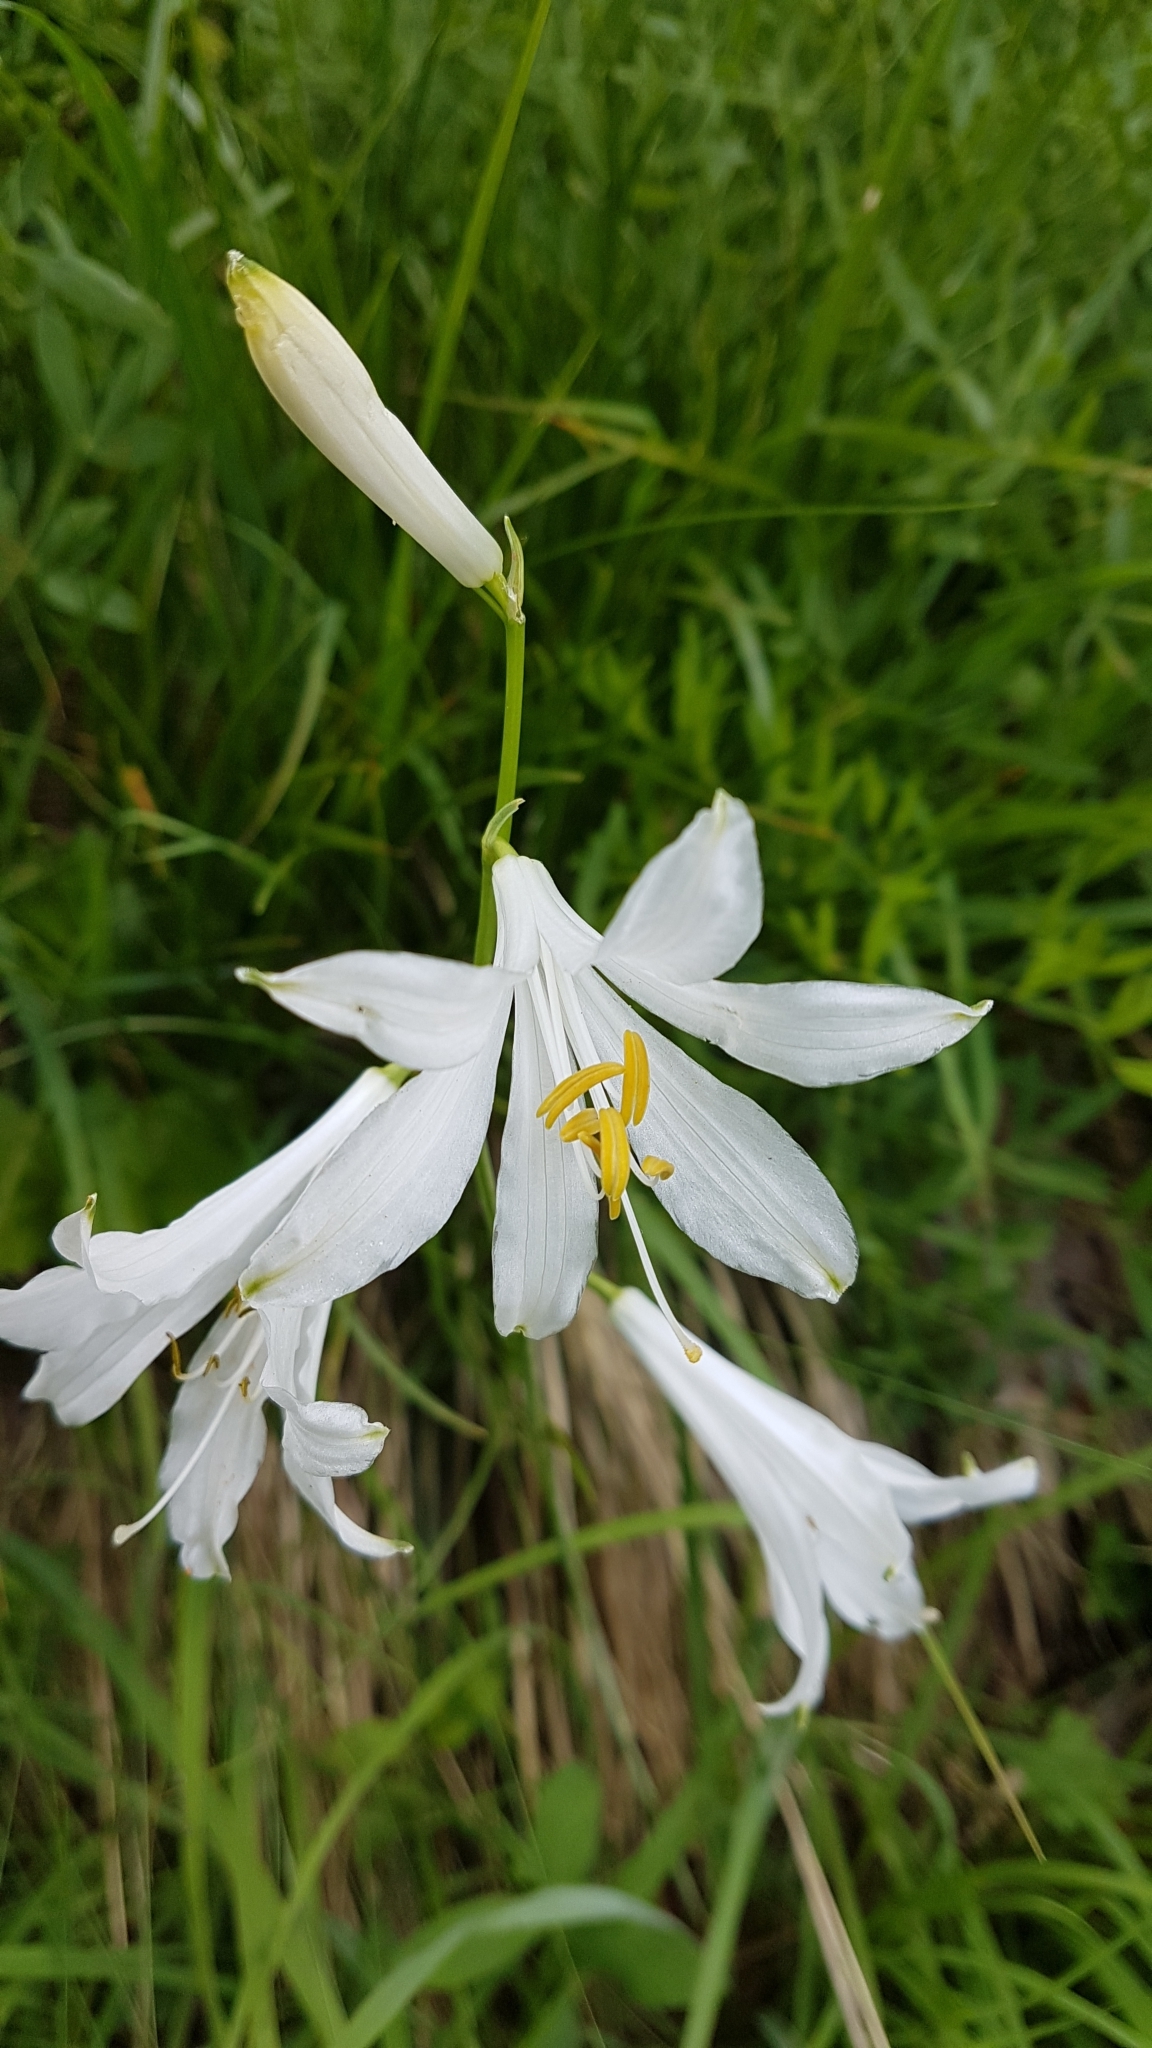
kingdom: Plantae
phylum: Tracheophyta
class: Liliopsida
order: Asparagales
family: Asparagaceae
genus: Paradisea
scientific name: Paradisea liliastrum
